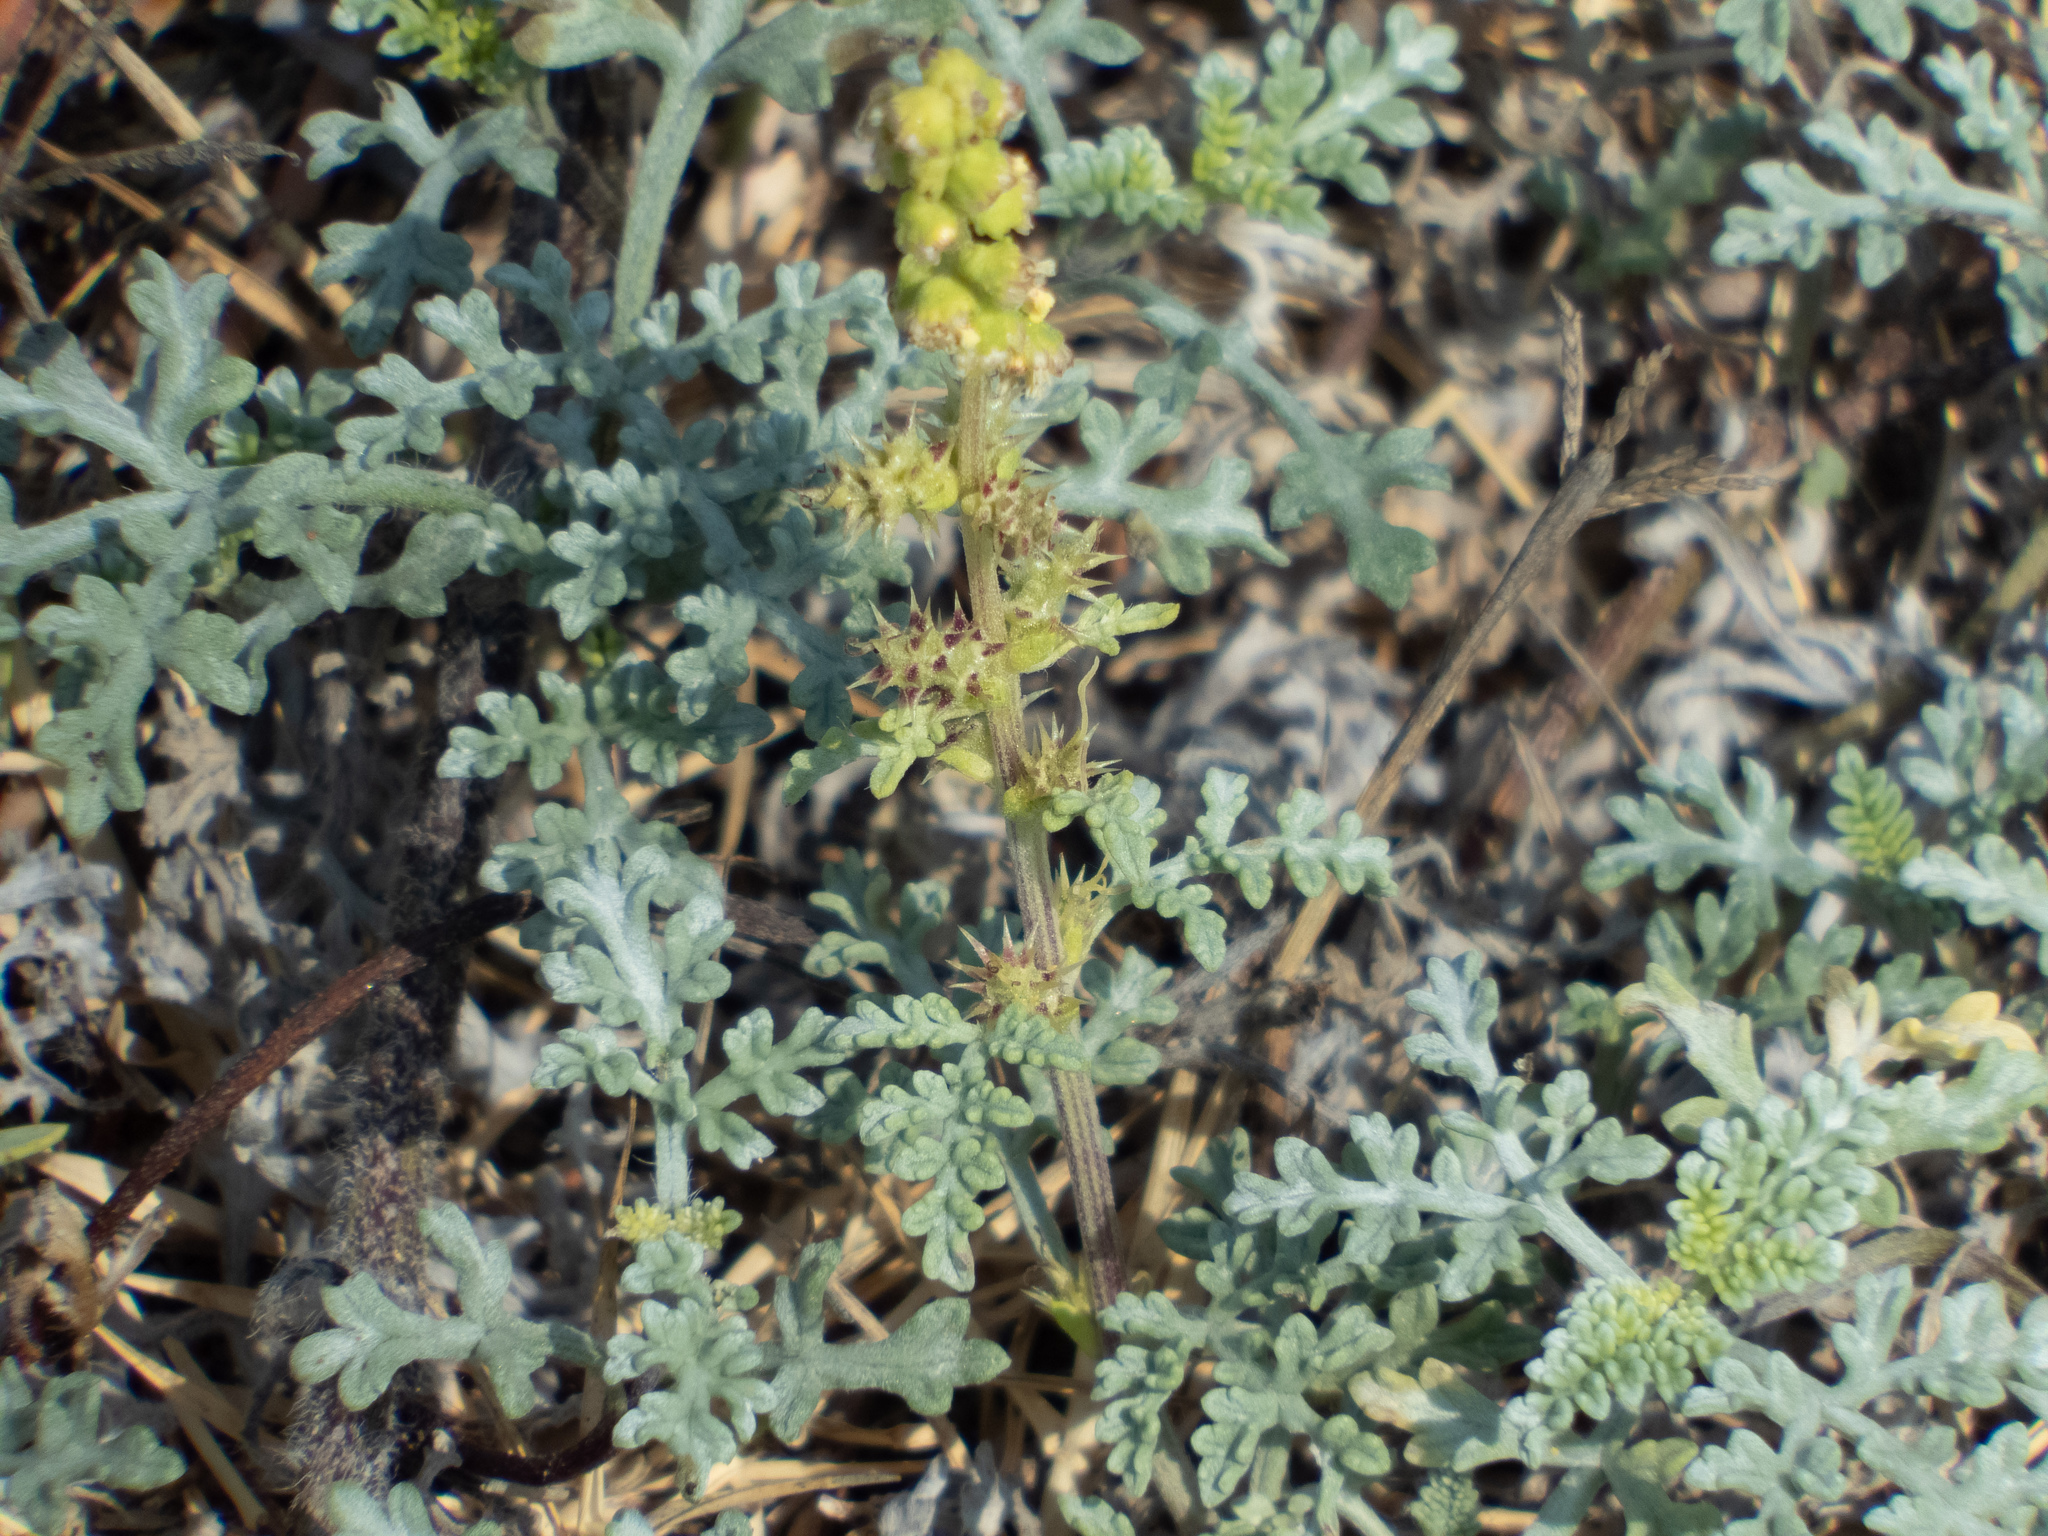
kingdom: Plantae
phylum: Tracheophyta
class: Magnoliopsida
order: Asterales
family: Asteraceae
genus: Ambrosia
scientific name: Ambrosia chamissonis
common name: Beachbur
